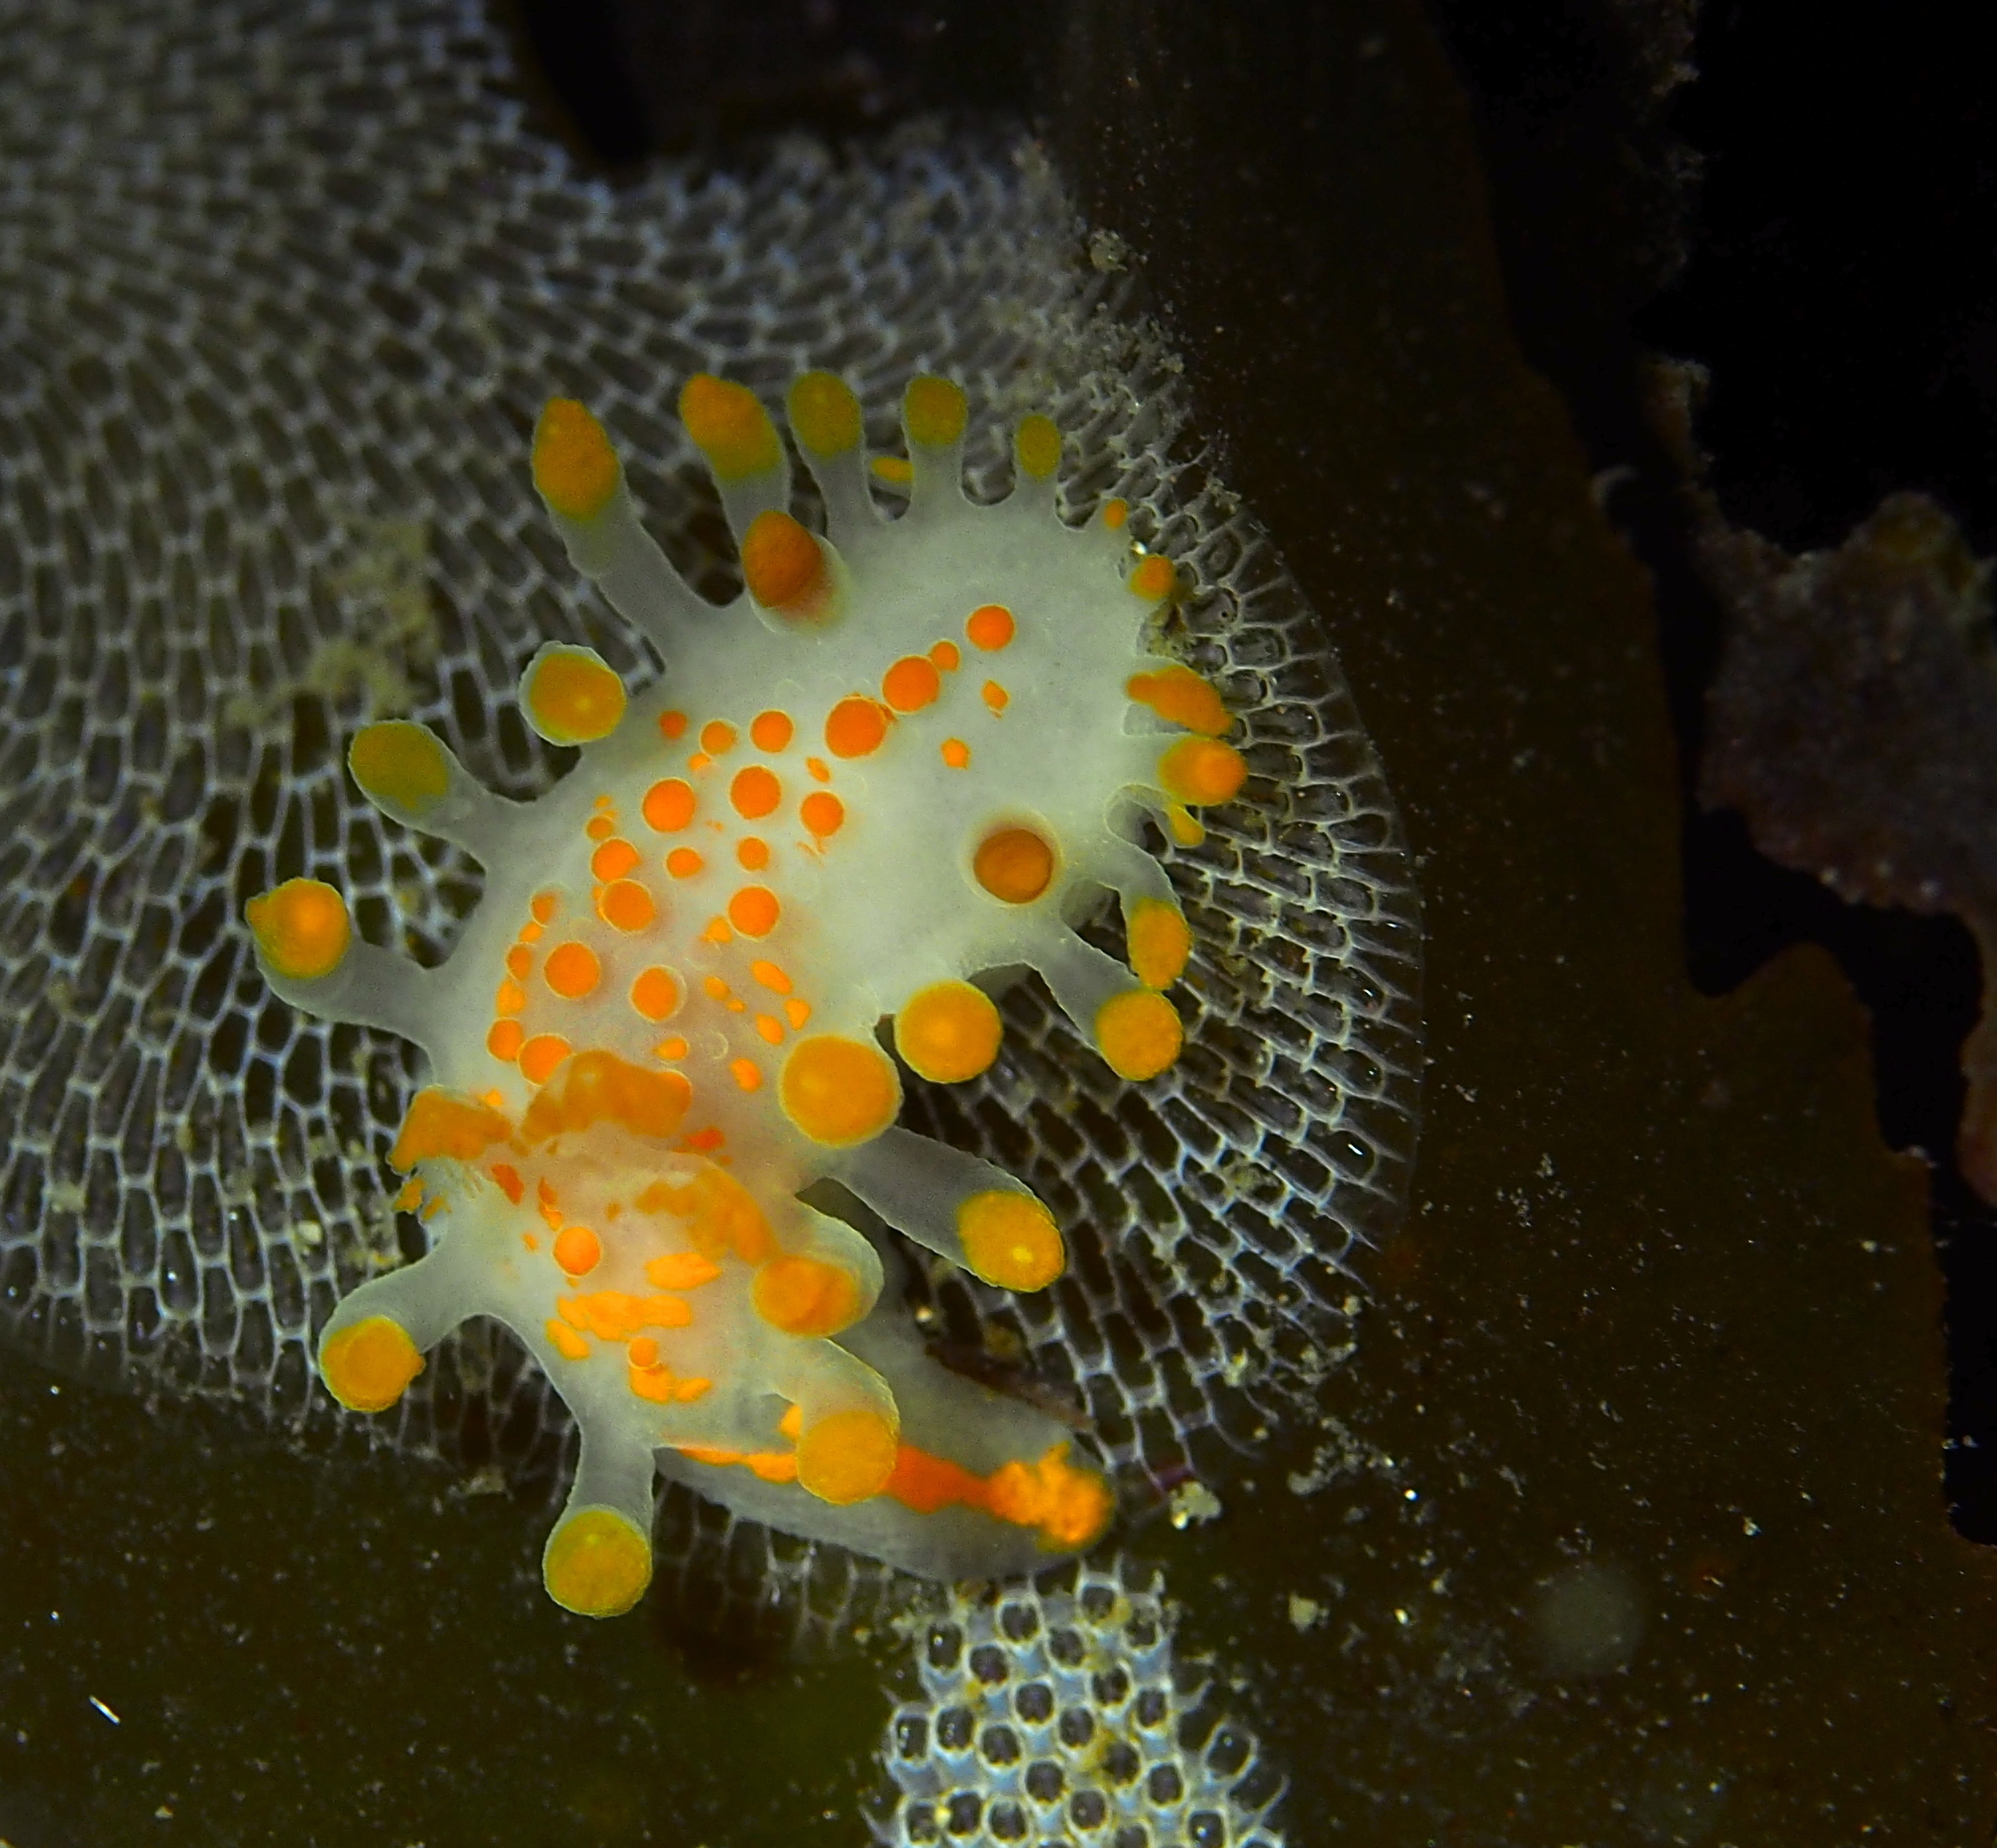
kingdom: Animalia
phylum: Mollusca
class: Gastropoda
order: Nudibranchia
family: Polyceridae
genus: Limacia
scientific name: Limacia clavigera
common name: Orange-clubbed sea slug
